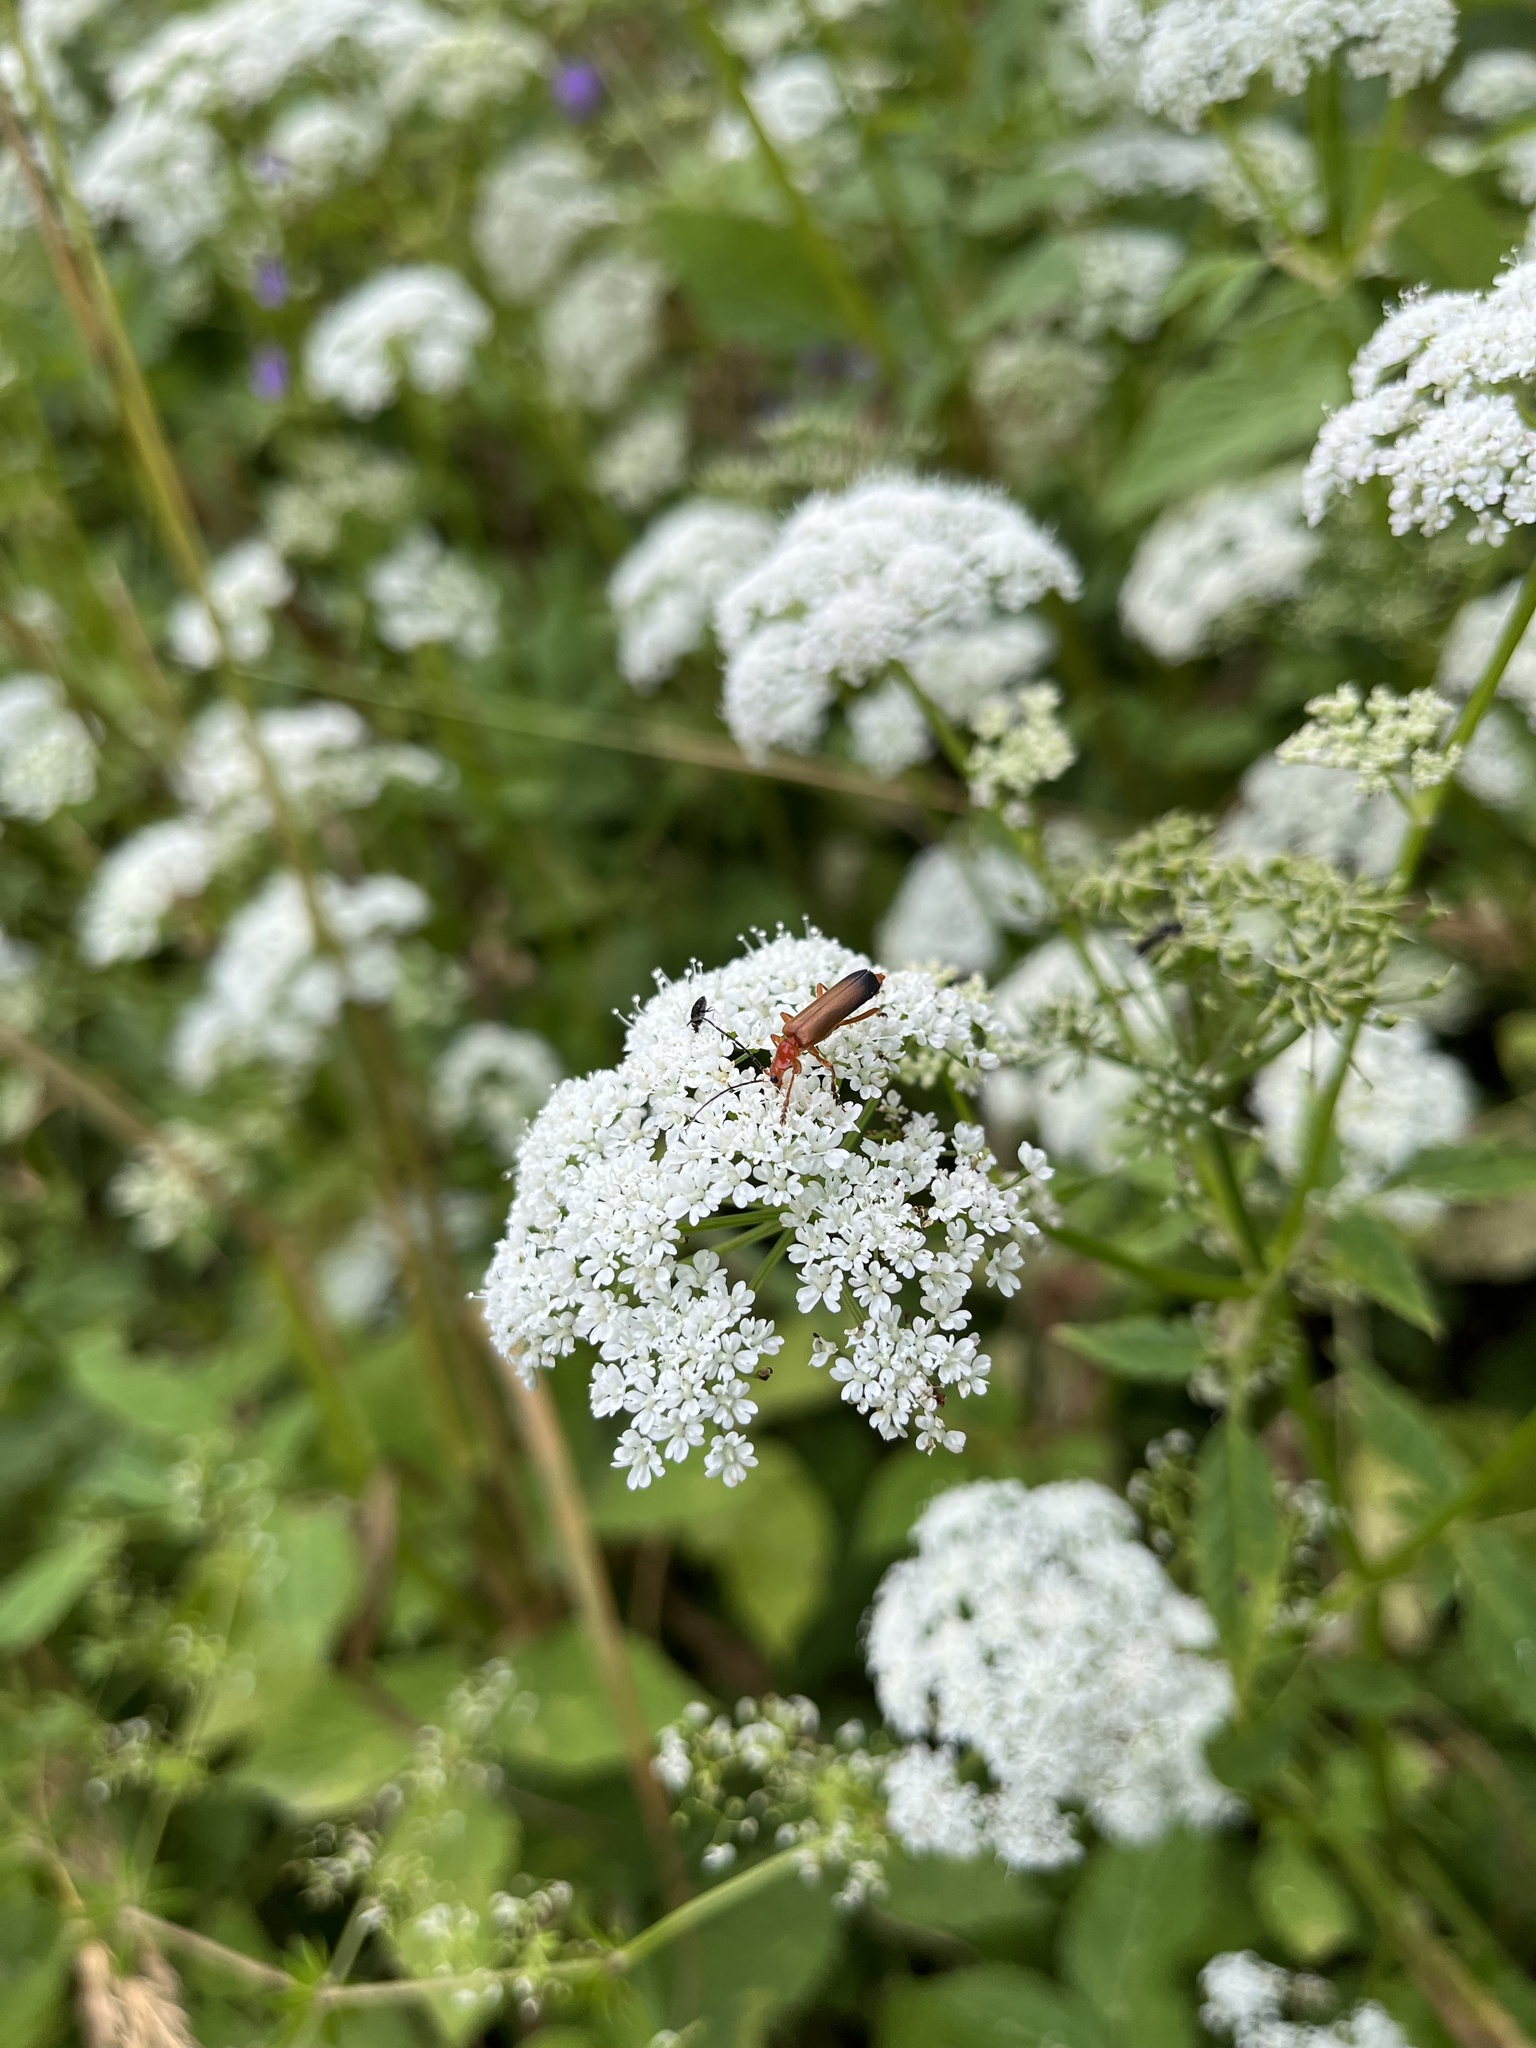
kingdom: Animalia
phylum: Arthropoda
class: Insecta
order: Coleoptera
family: Cantharidae
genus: Rhagonycha
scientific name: Rhagonycha fulva
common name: Common red soldier beetle
